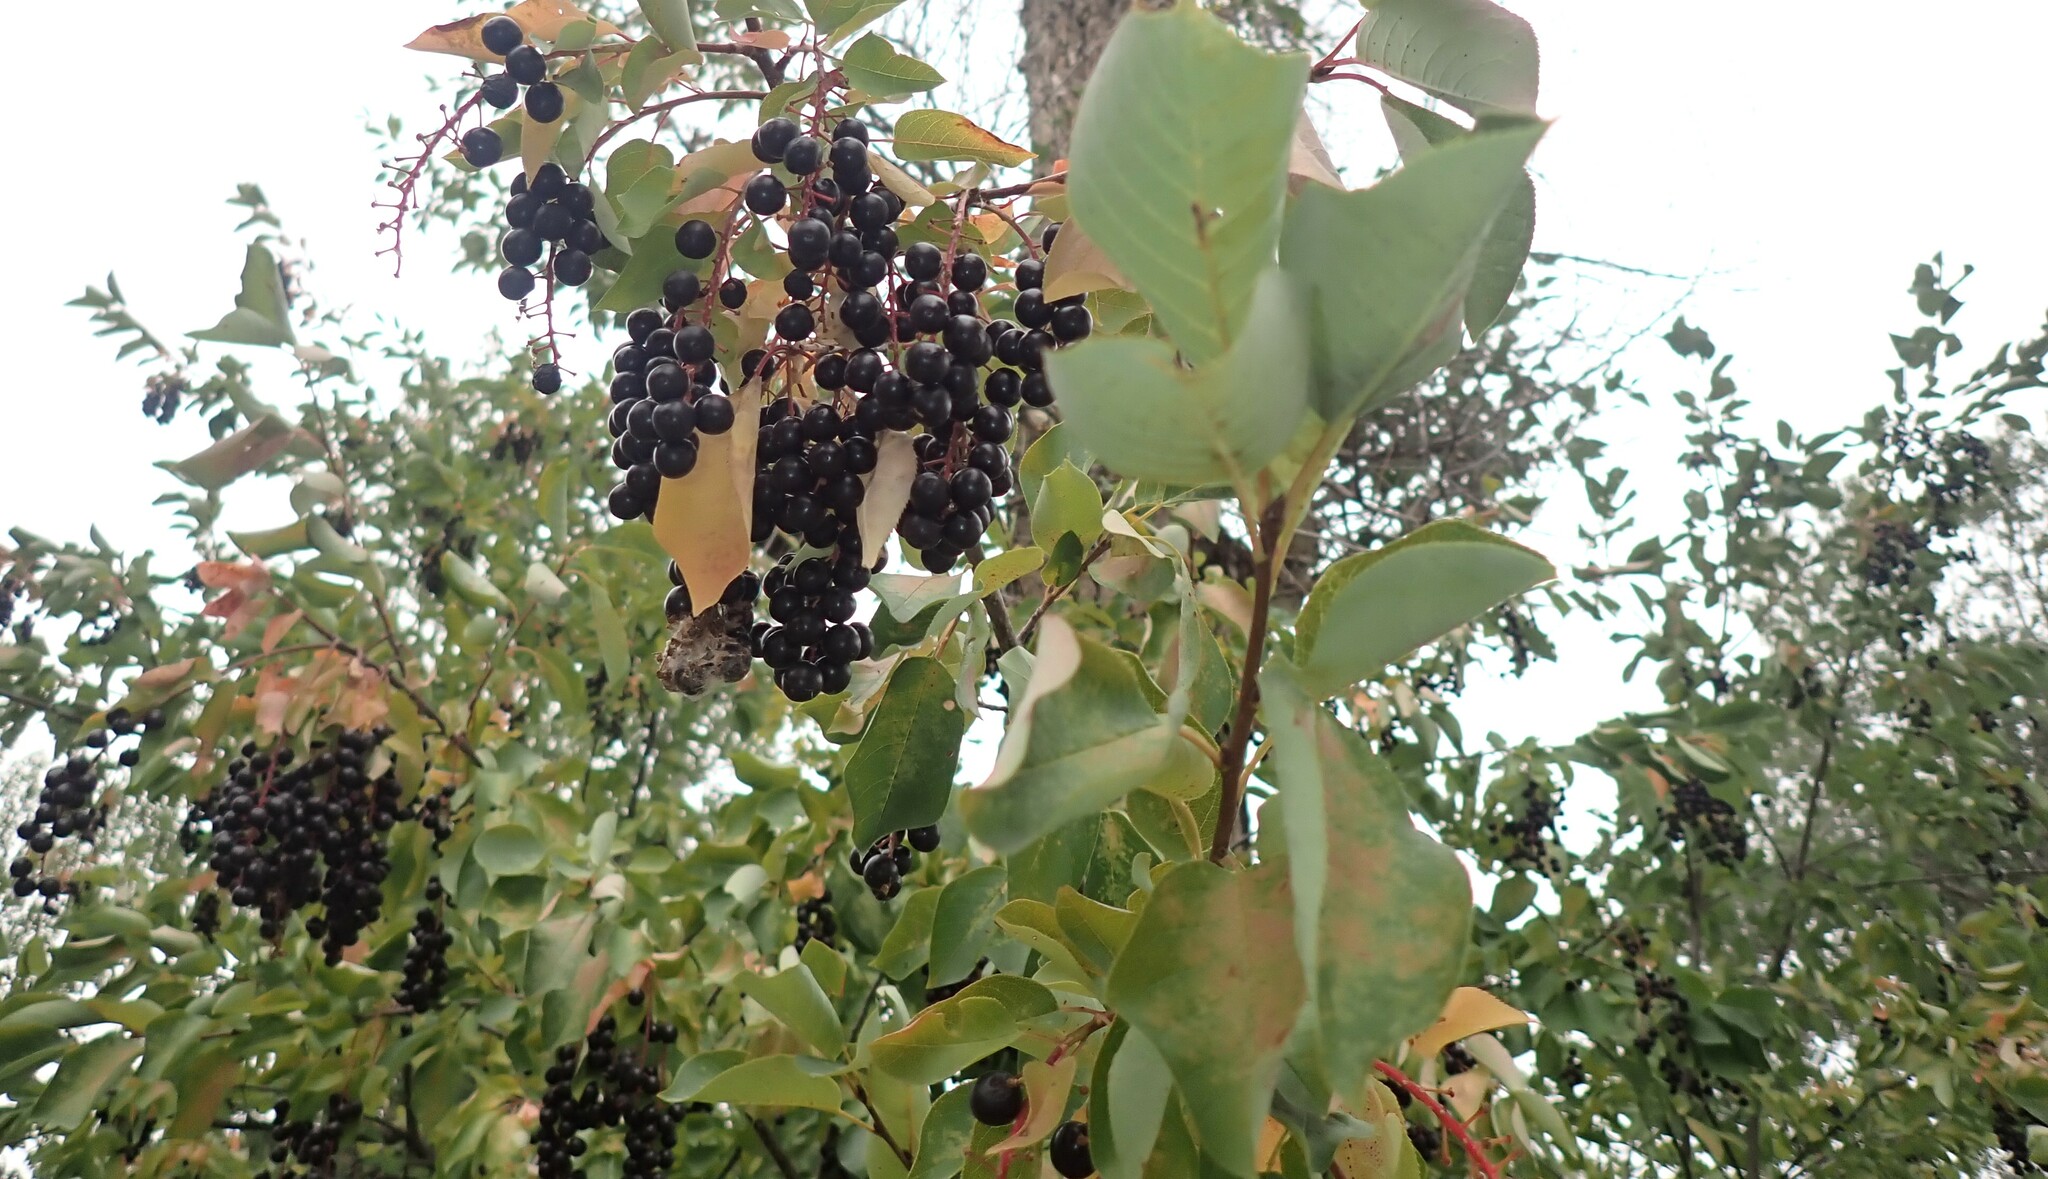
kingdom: Plantae
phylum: Tracheophyta
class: Magnoliopsida
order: Rosales
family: Rosaceae
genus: Prunus
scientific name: Prunus virginiana
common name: Chokecherry
